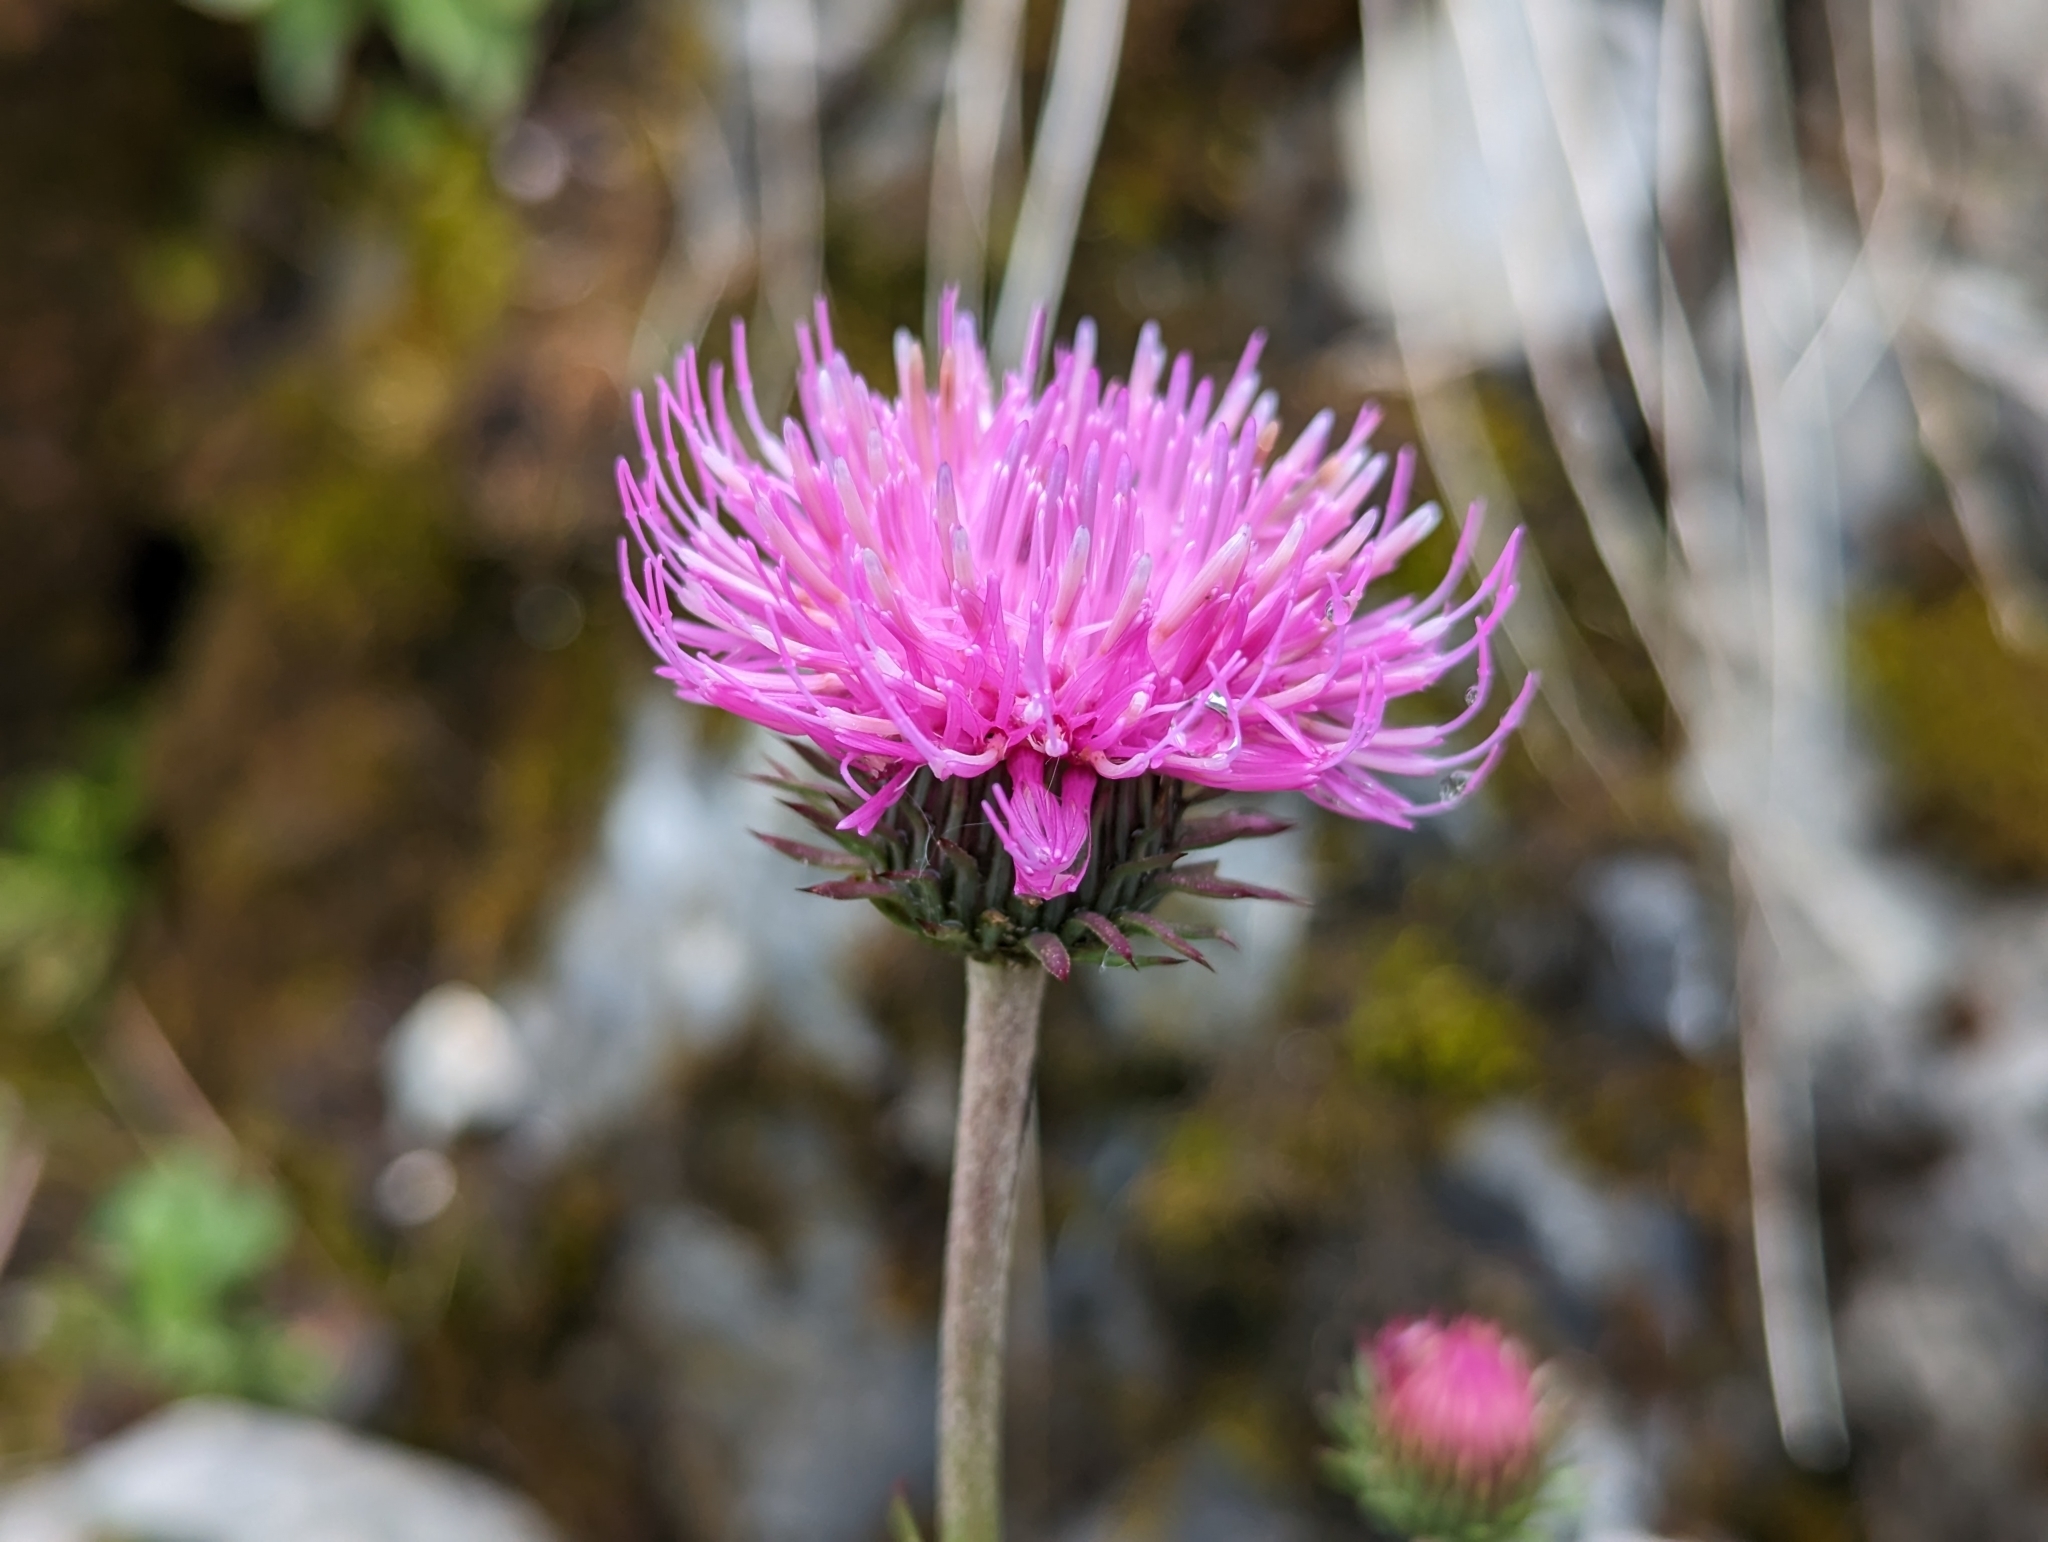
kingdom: Plantae
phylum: Tracheophyta
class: Magnoliopsida
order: Asterales
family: Asteraceae
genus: Carduus
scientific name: Carduus defloratus
